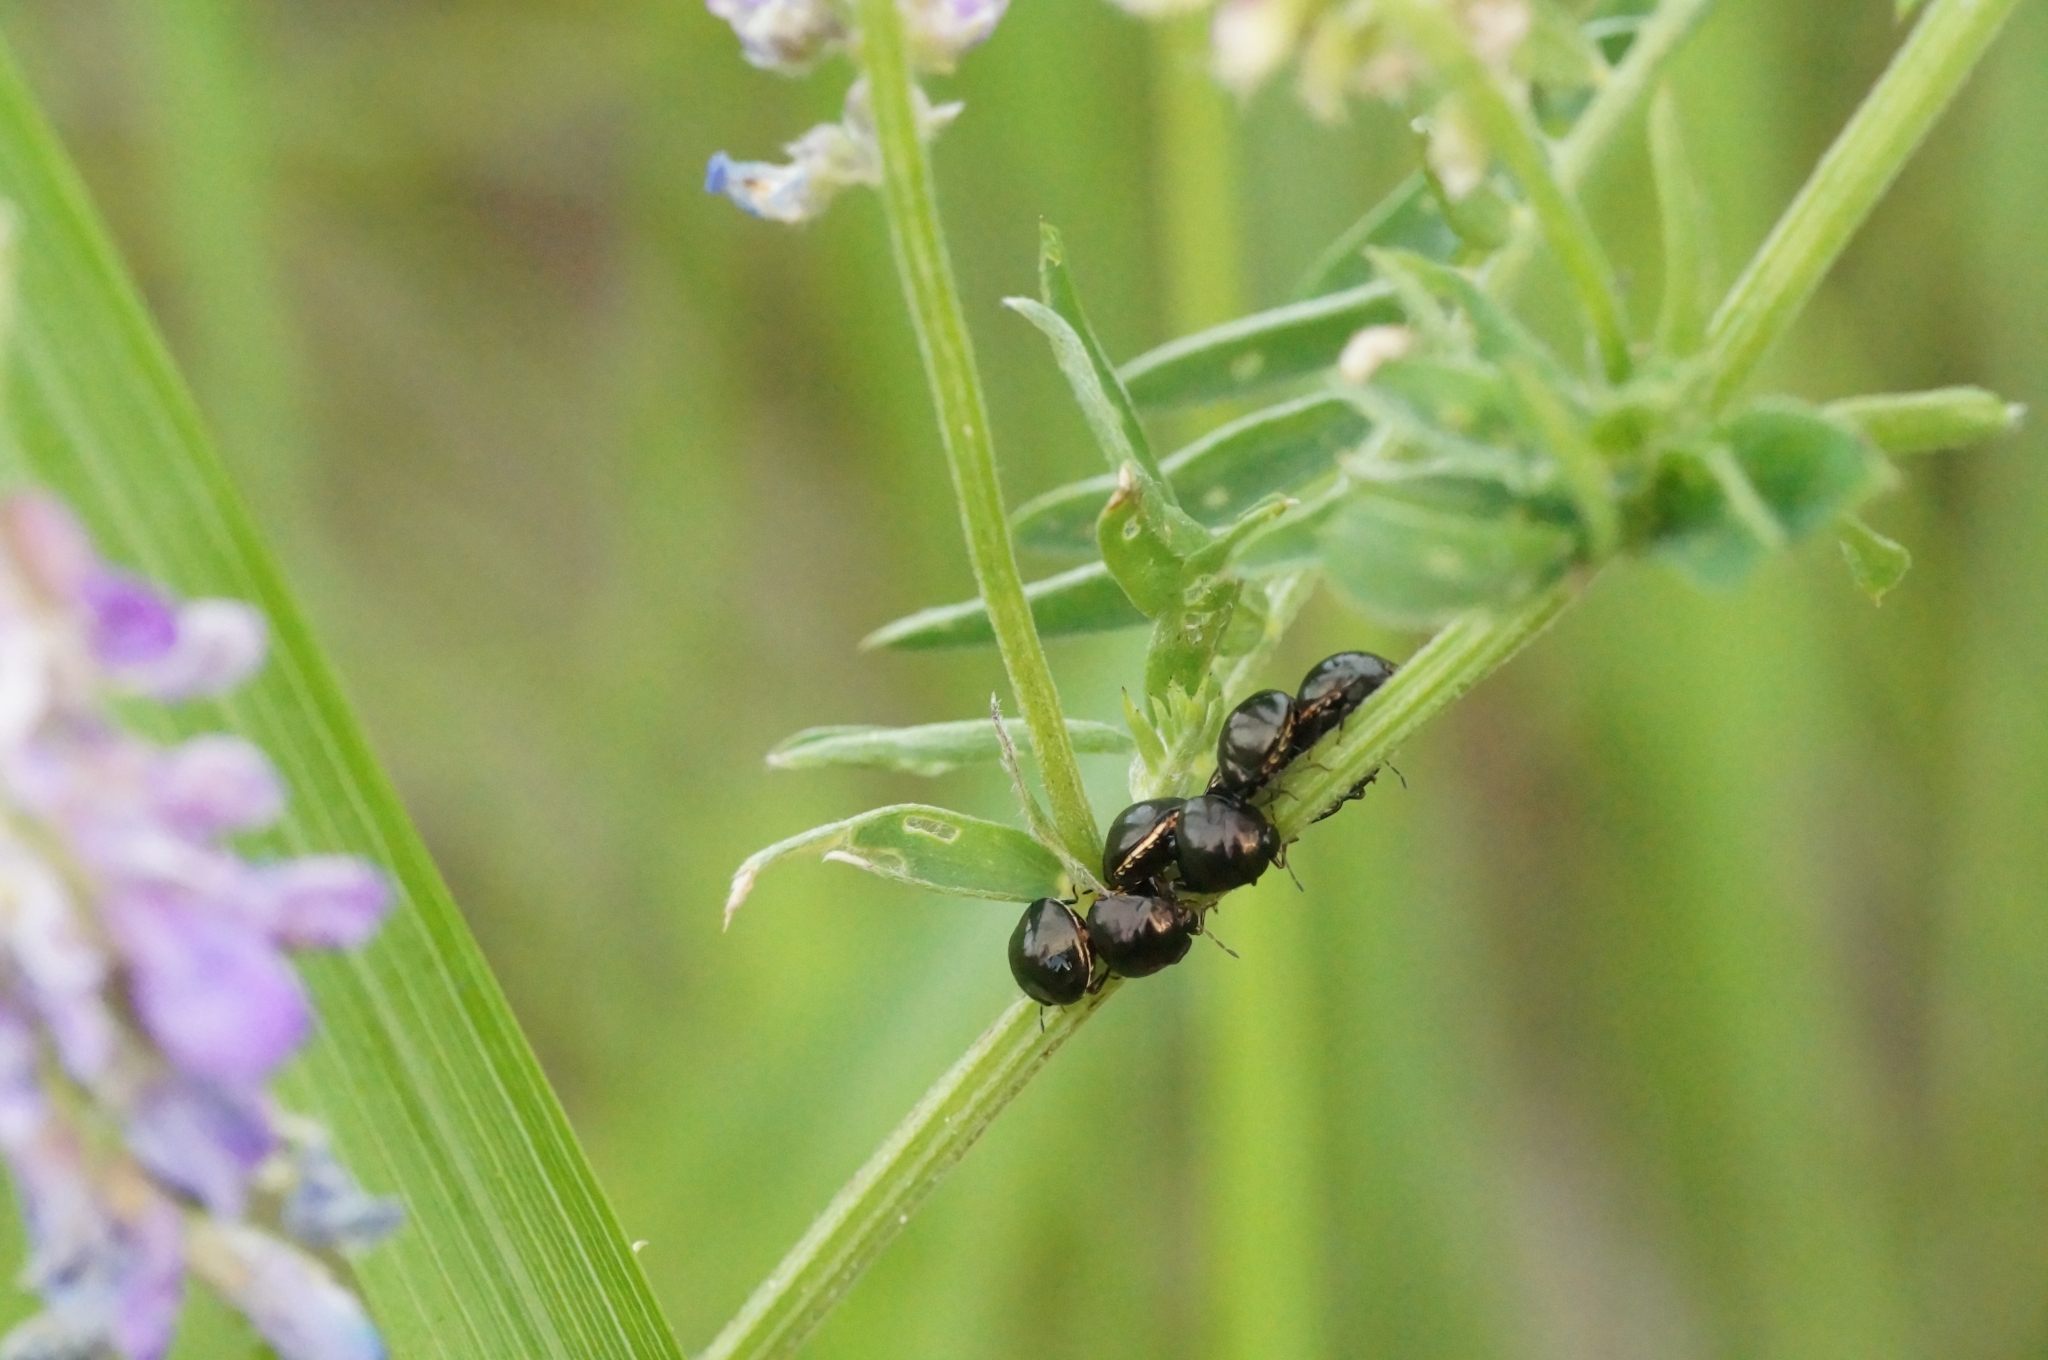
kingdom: Animalia
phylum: Arthropoda
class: Insecta
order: Hemiptera
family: Plataspidae
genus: Coptosoma
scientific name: Coptosoma scutellatum
